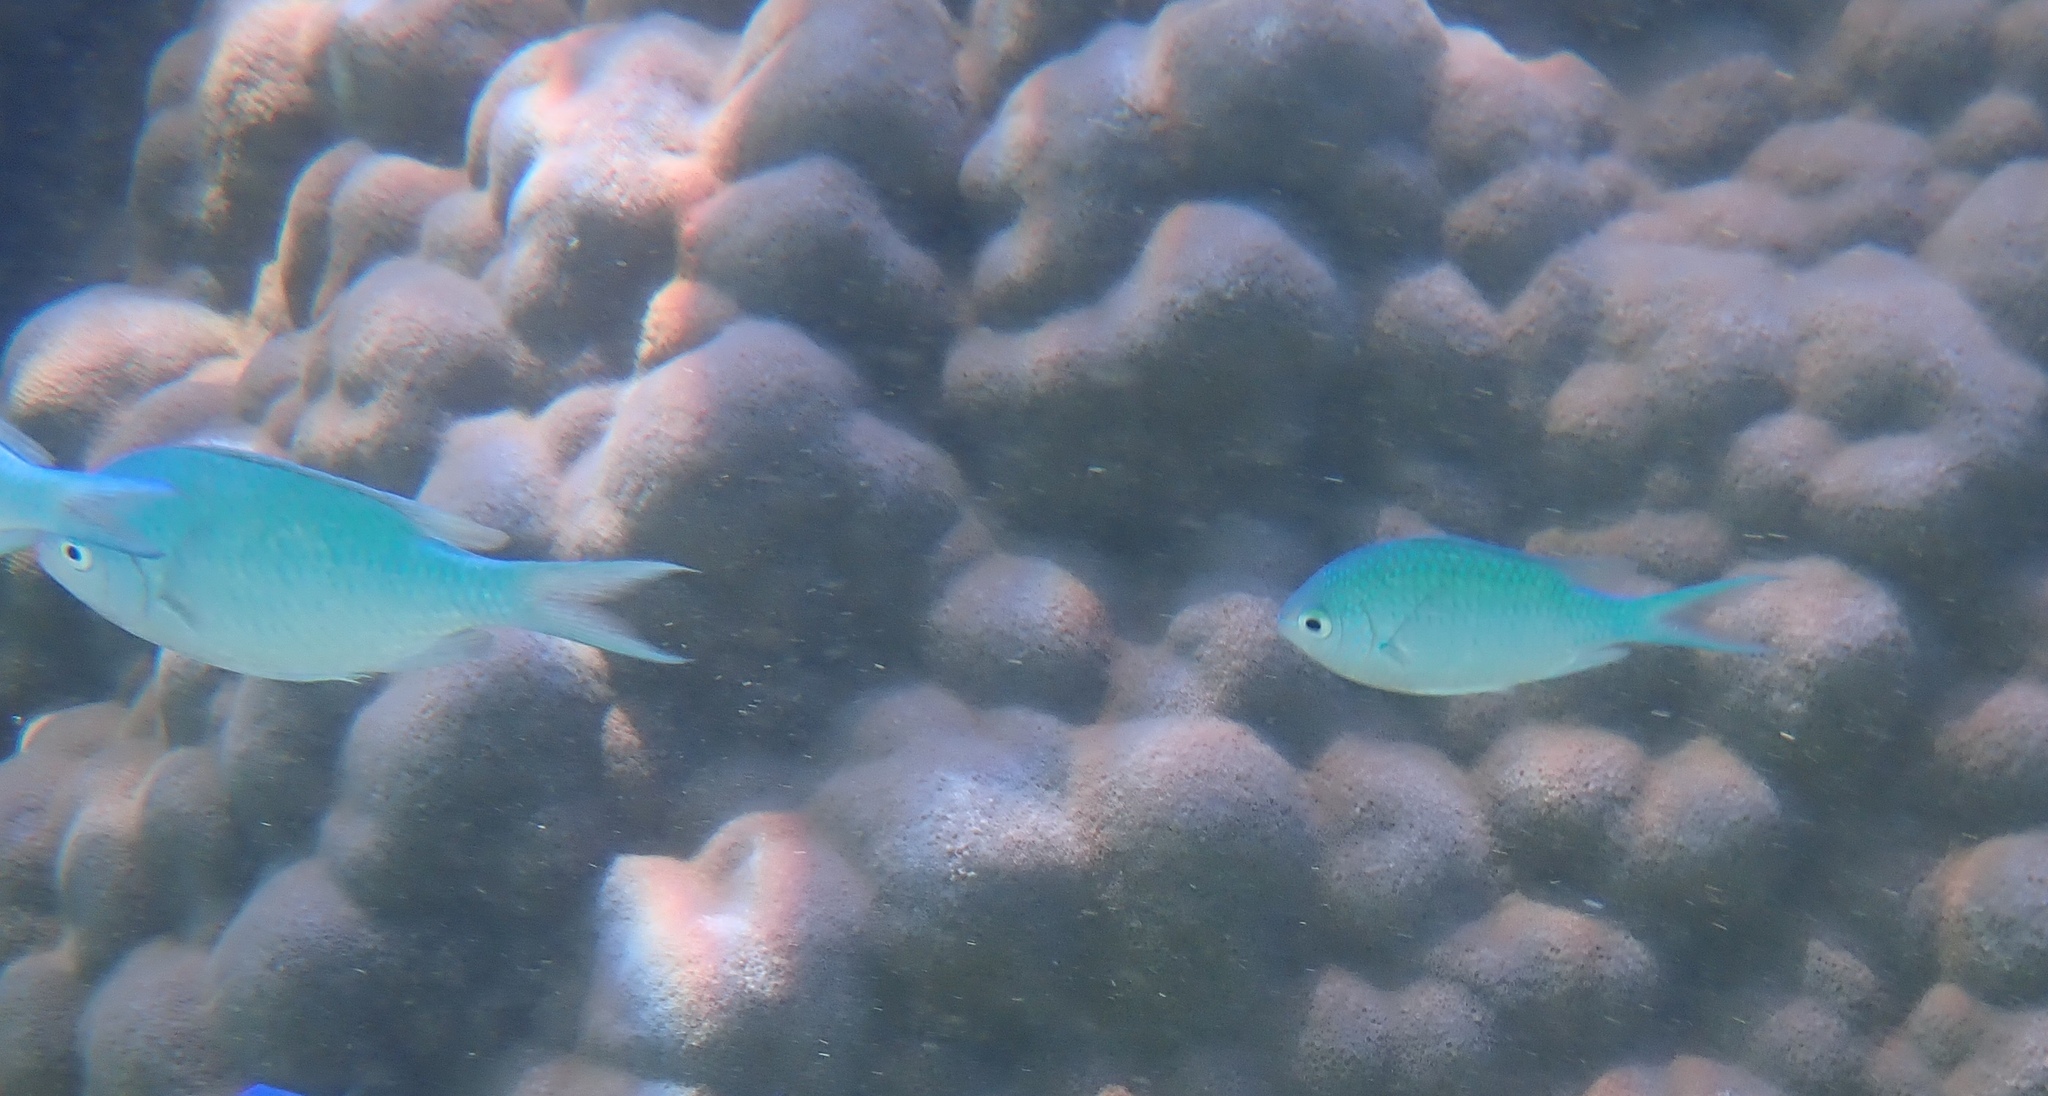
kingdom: Animalia
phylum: Chordata
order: Perciformes
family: Pomacentridae
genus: Chromis
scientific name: Chromis viridis
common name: Blue-green chromis
